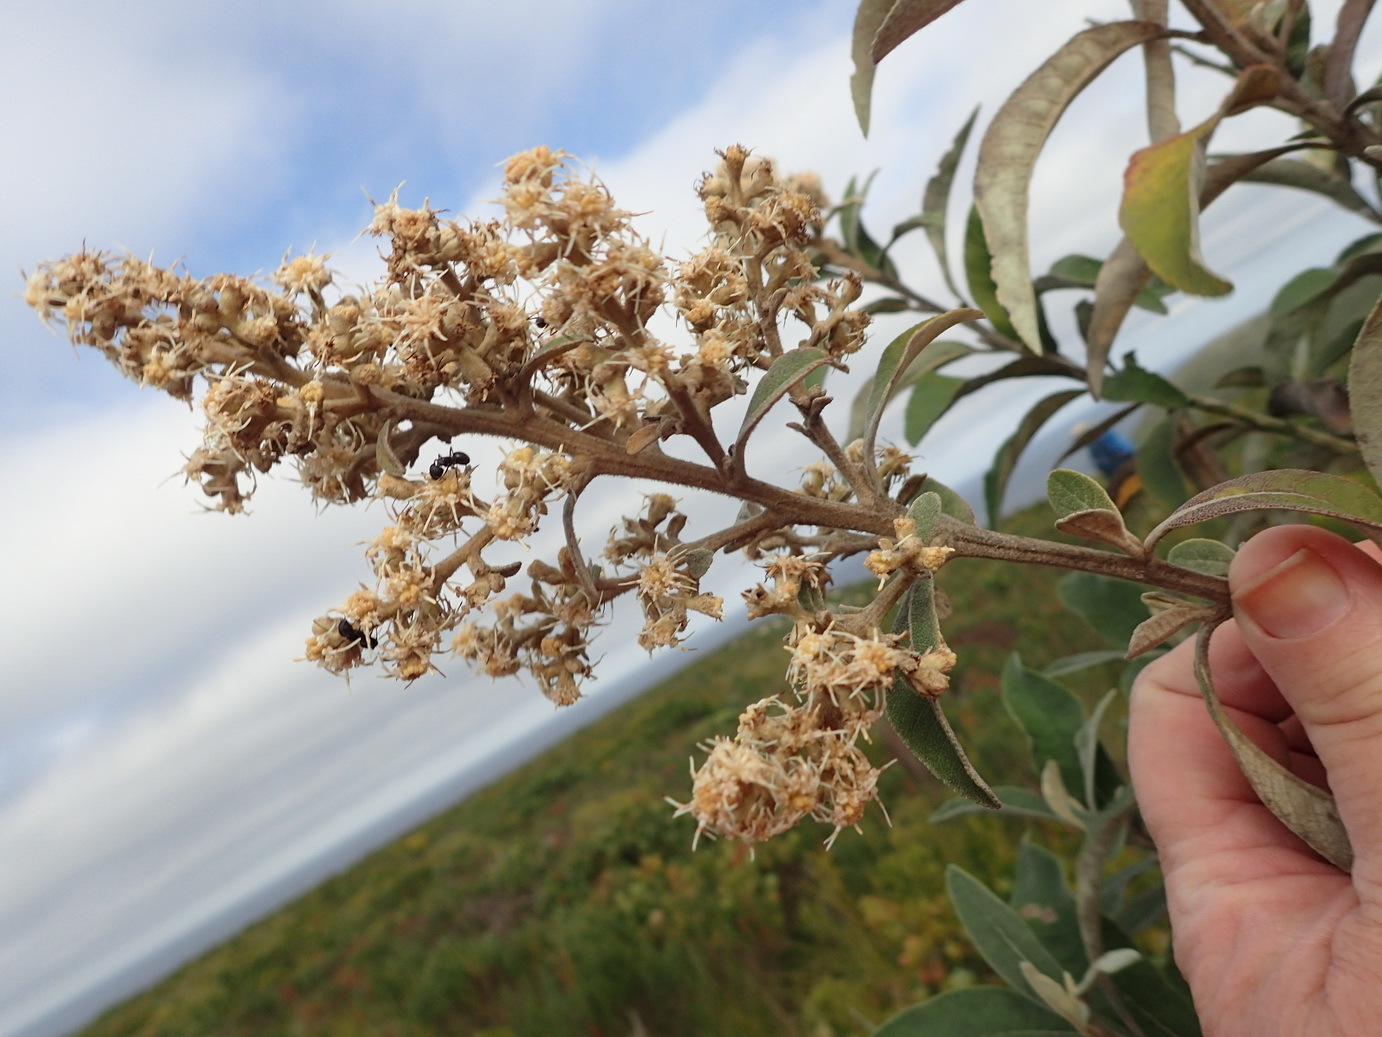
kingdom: Plantae
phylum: Tracheophyta
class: Magnoliopsida
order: Asterales
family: Asteraceae
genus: Tarchonanthus
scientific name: Tarchonanthus littoralis
